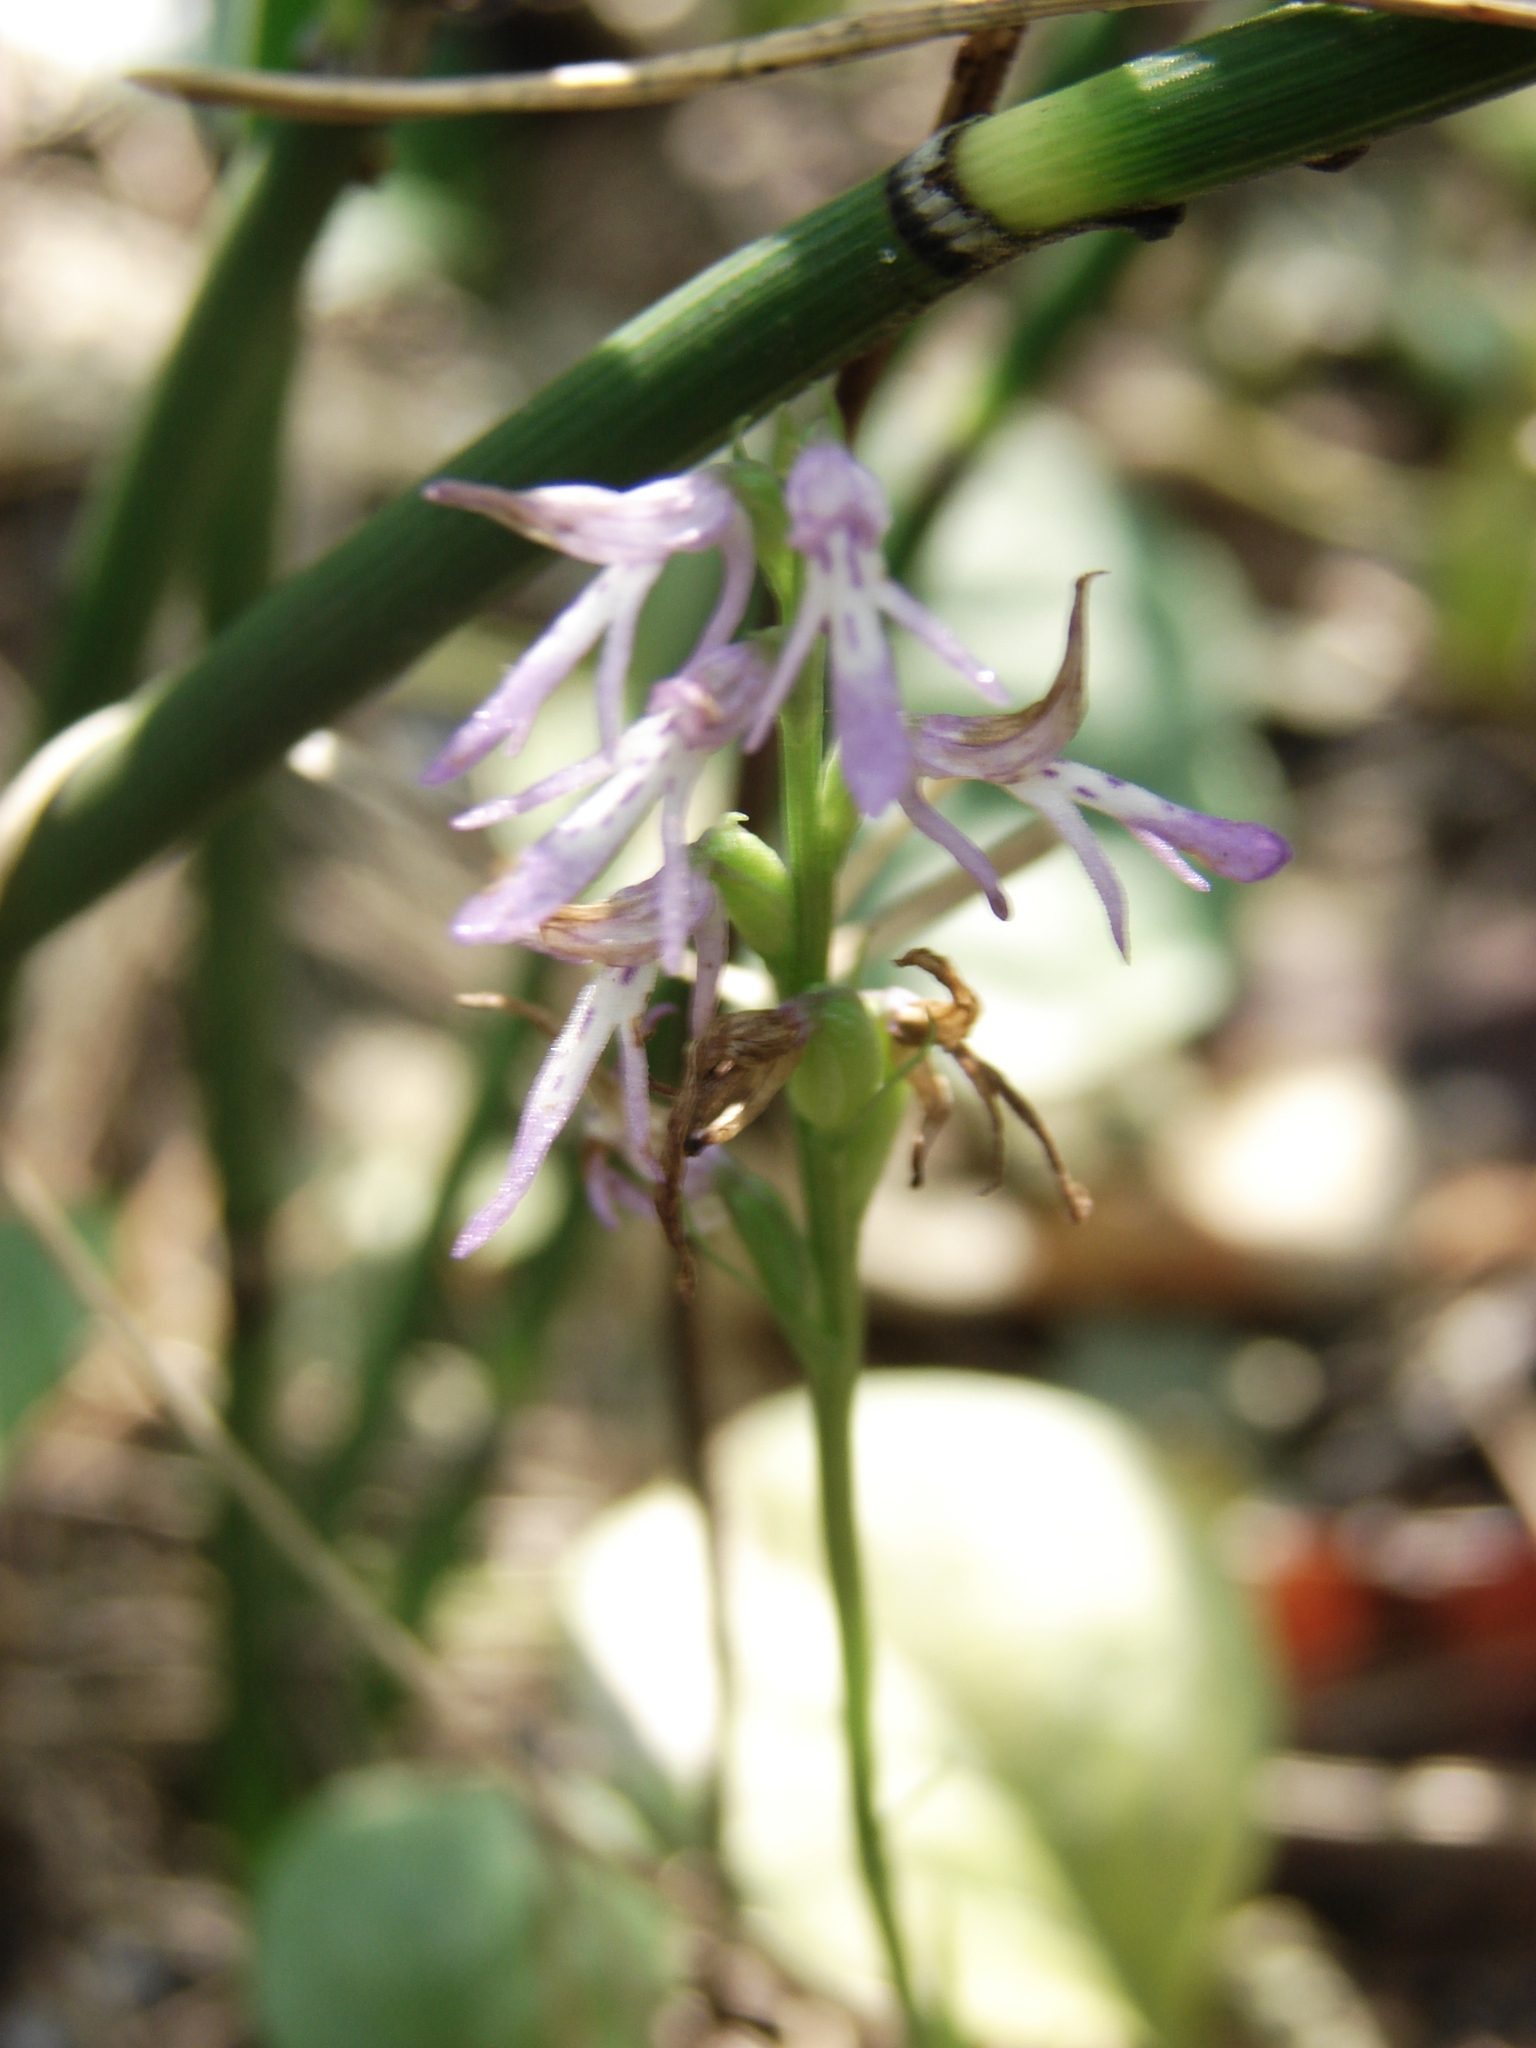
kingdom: Plantae
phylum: Tracheophyta
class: Liliopsida
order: Asparagales
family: Orchidaceae
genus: Hemipilia
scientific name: Hemipilia cucullata
